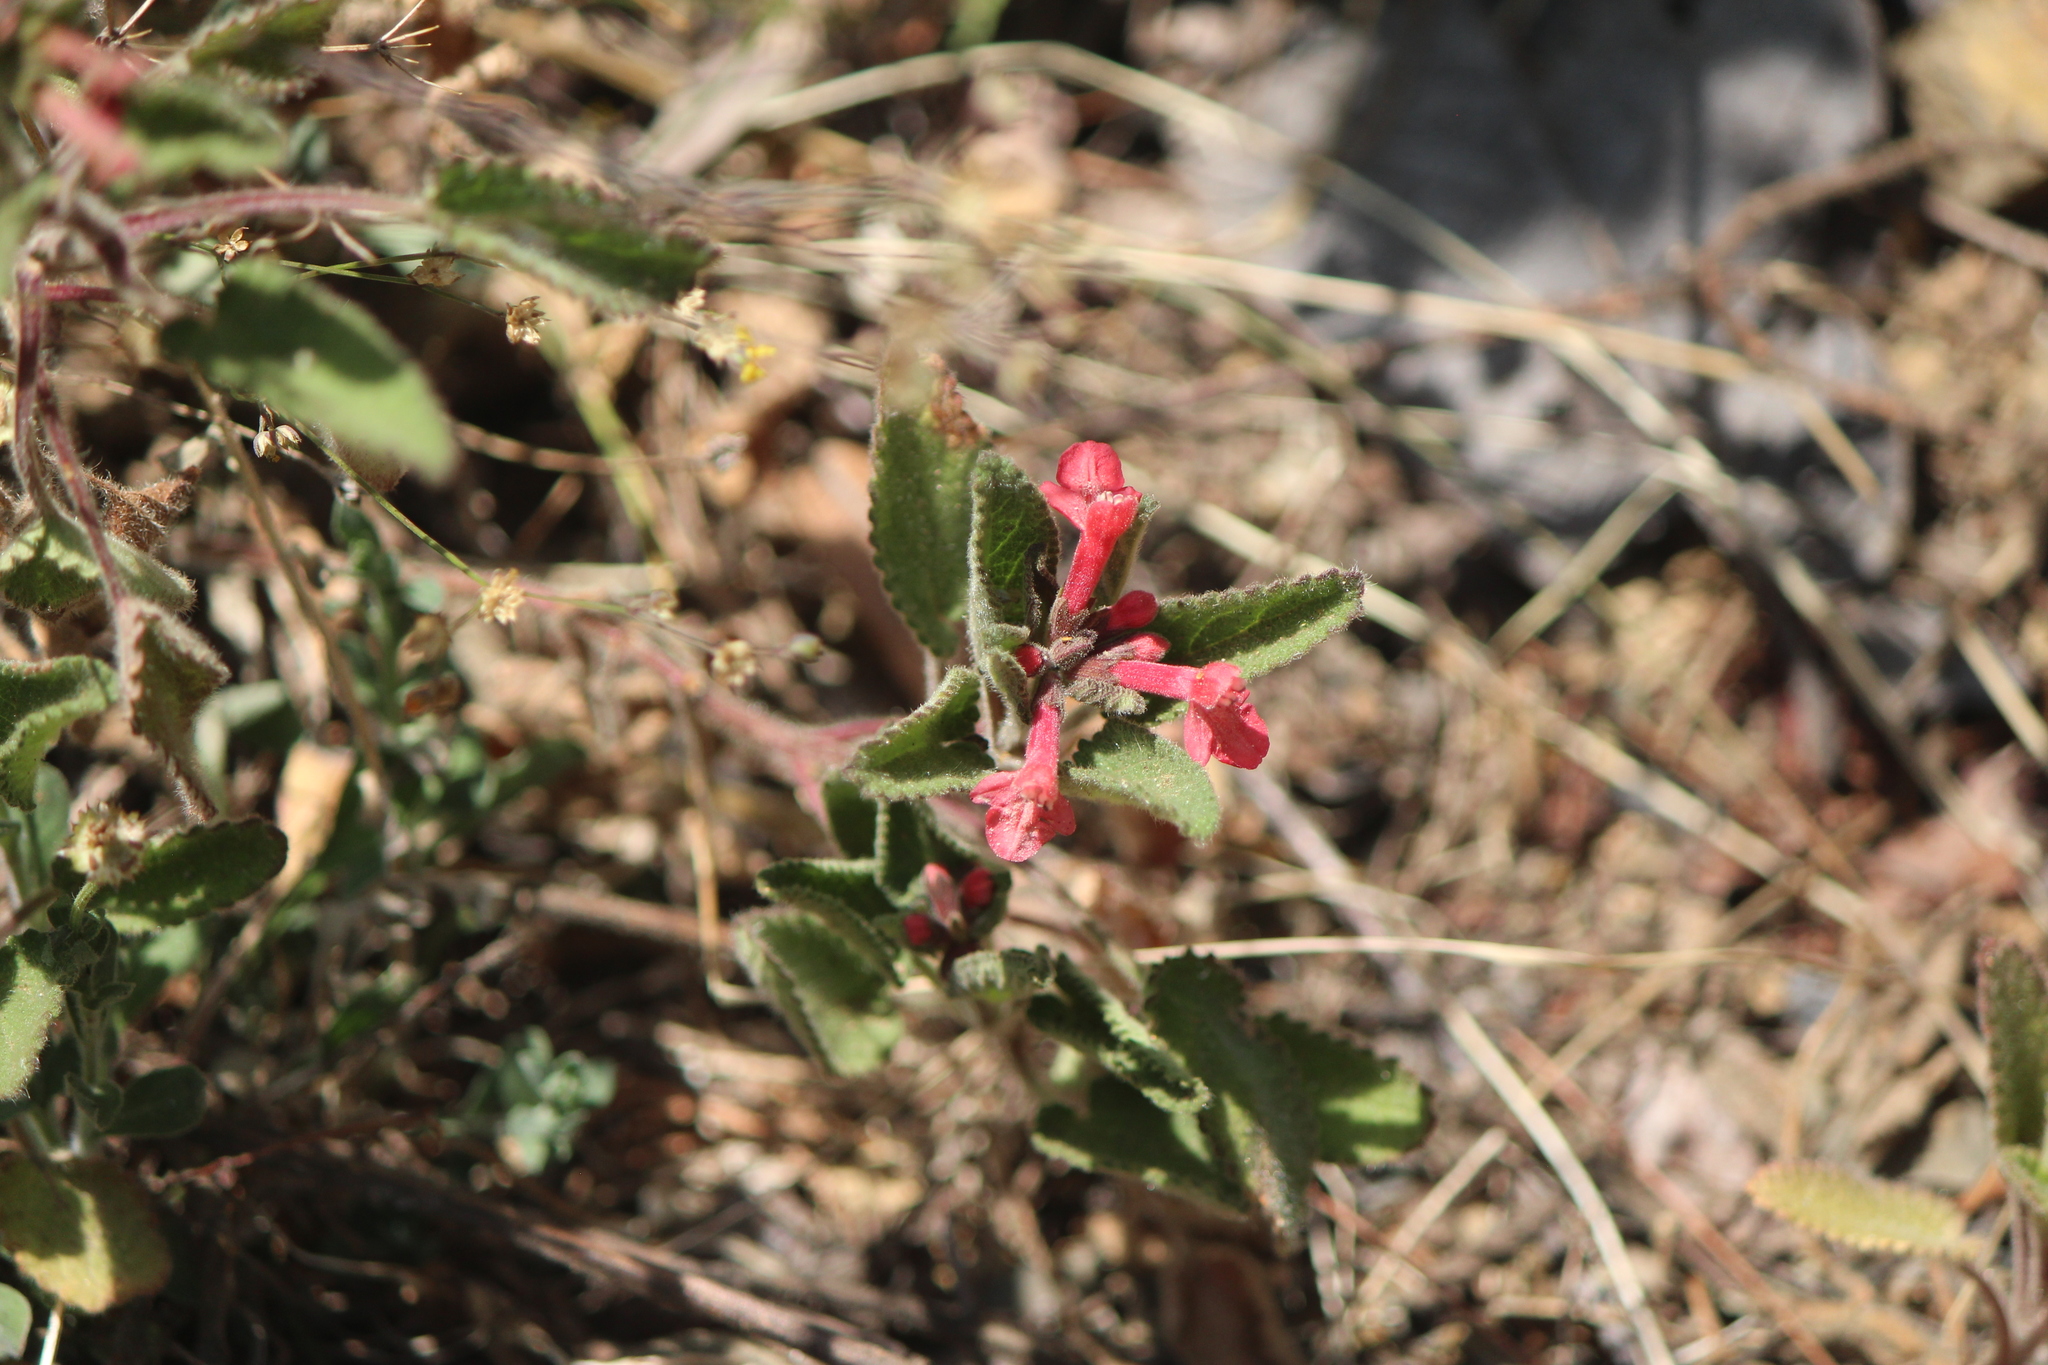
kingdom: Plantae
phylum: Tracheophyta
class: Magnoliopsida
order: Lamiales
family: Lamiaceae
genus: Stachys
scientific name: Stachys coccinea
